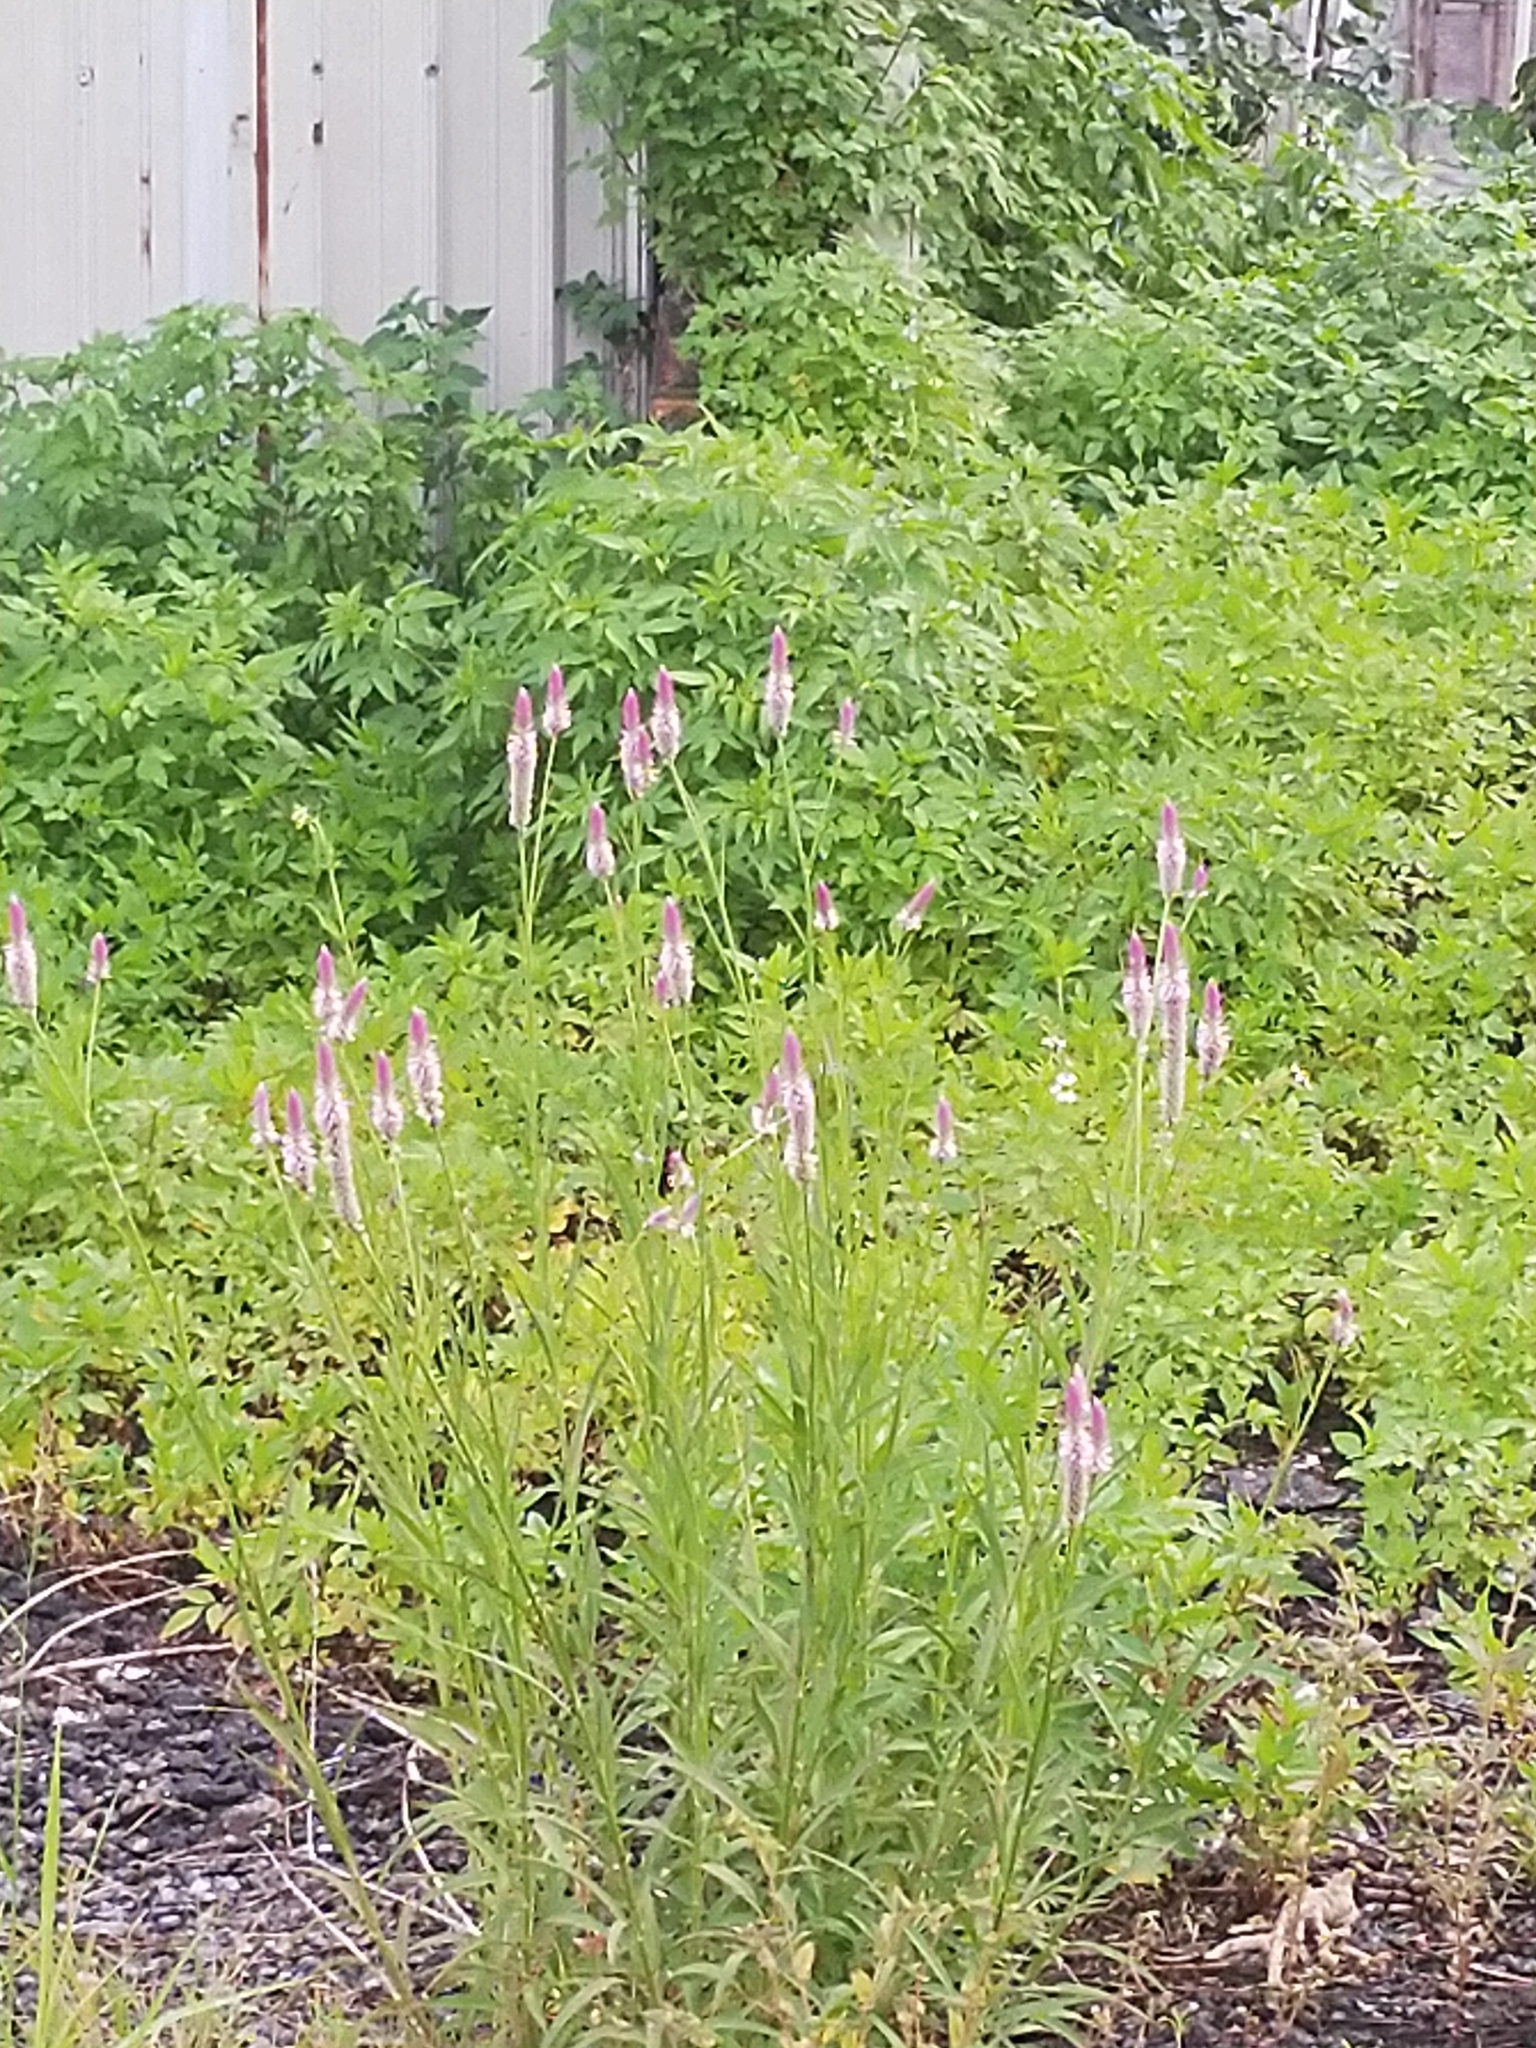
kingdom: Plantae
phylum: Tracheophyta
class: Magnoliopsida
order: Caryophyllales
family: Amaranthaceae
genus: Celosia
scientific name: Celosia argentea
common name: Feather cockscomb
